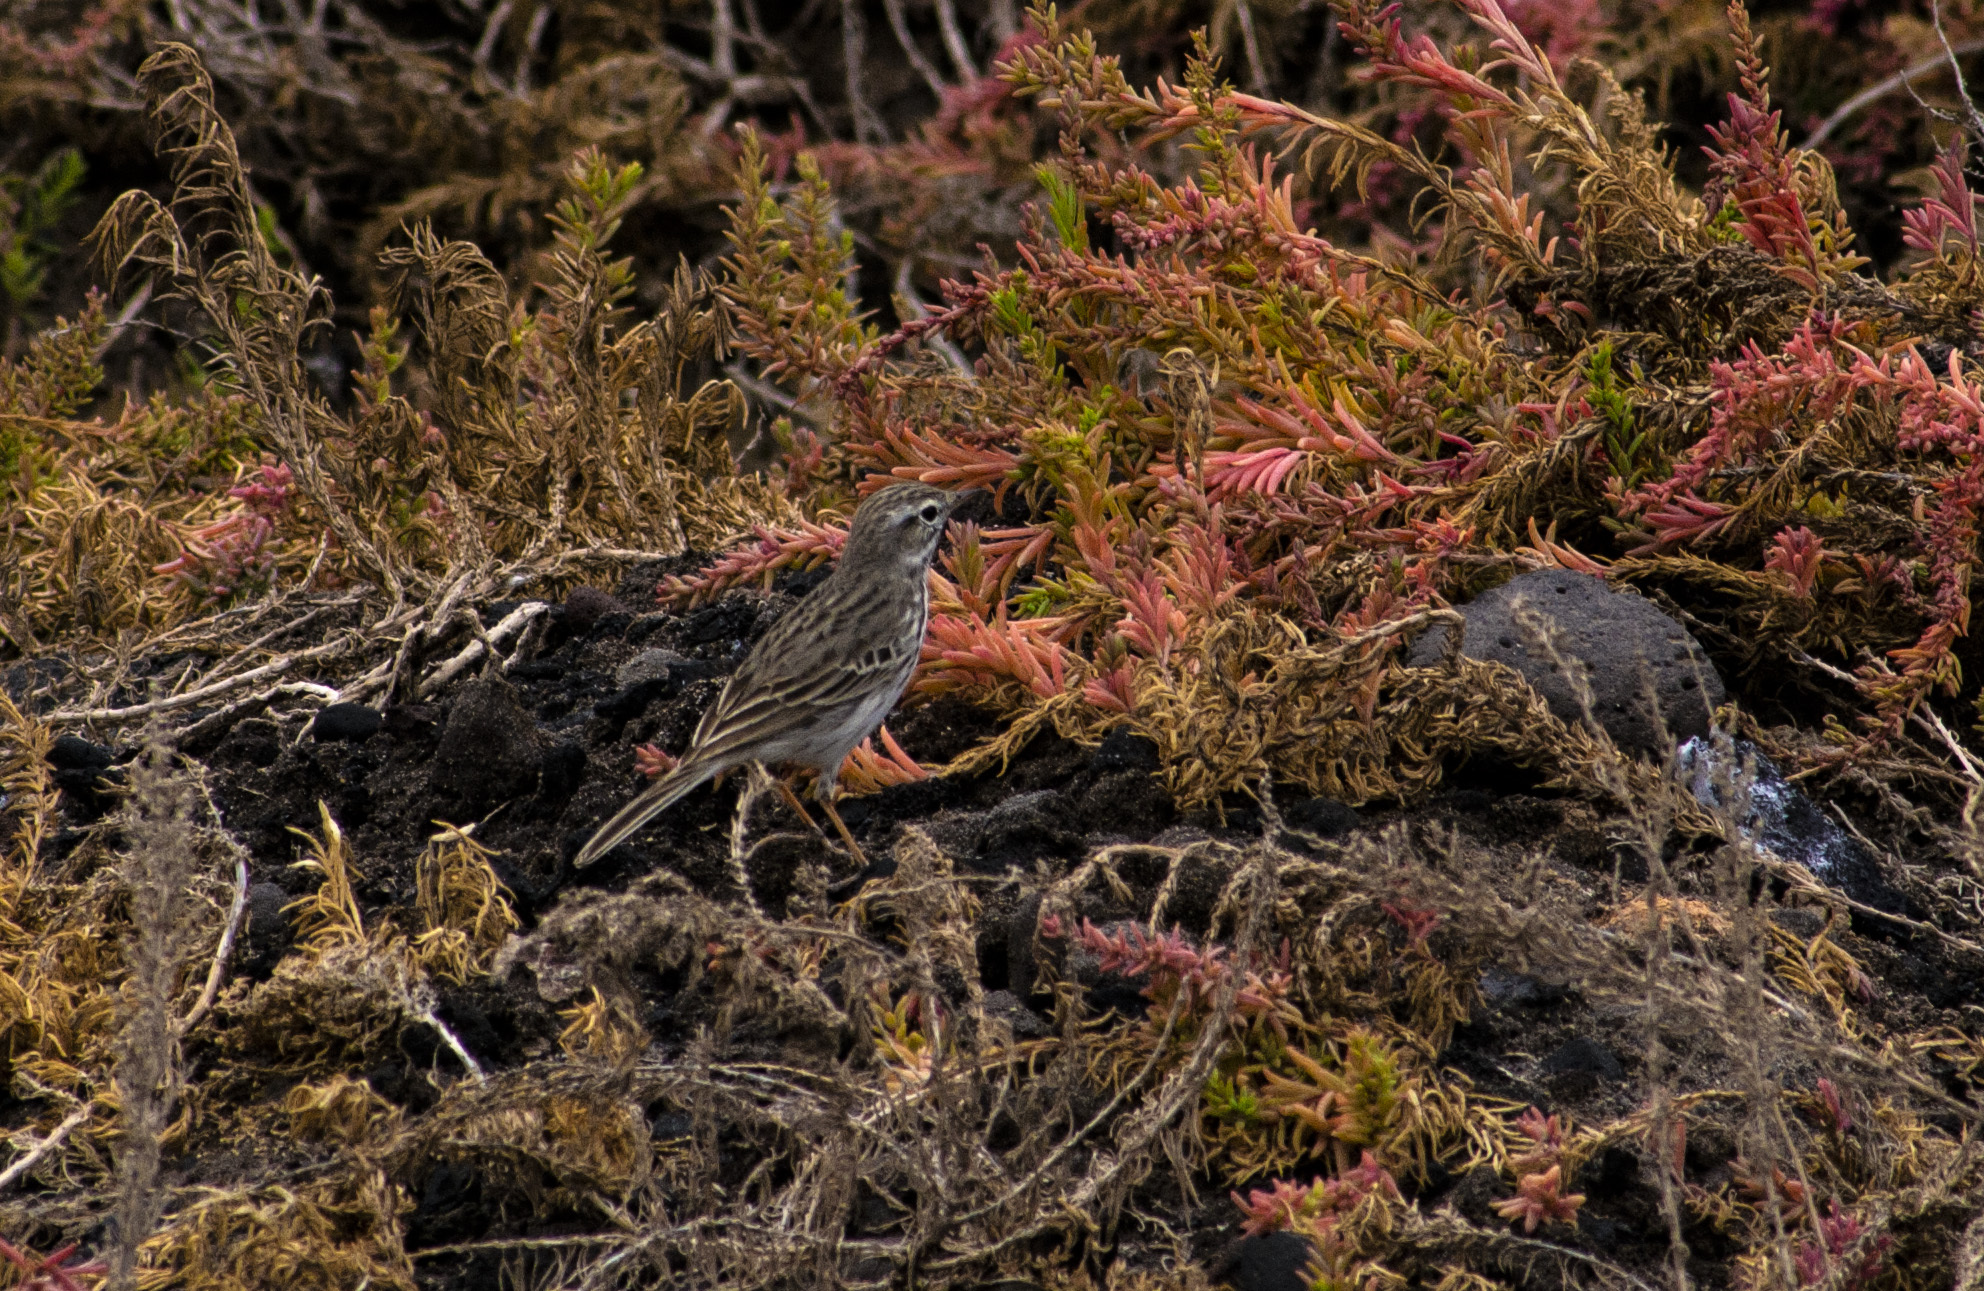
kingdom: Animalia
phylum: Chordata
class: Aves
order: Passeriformes
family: Motacillidae
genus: Anthus
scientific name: Anthus berthelotii
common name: Berthelot's pipit
